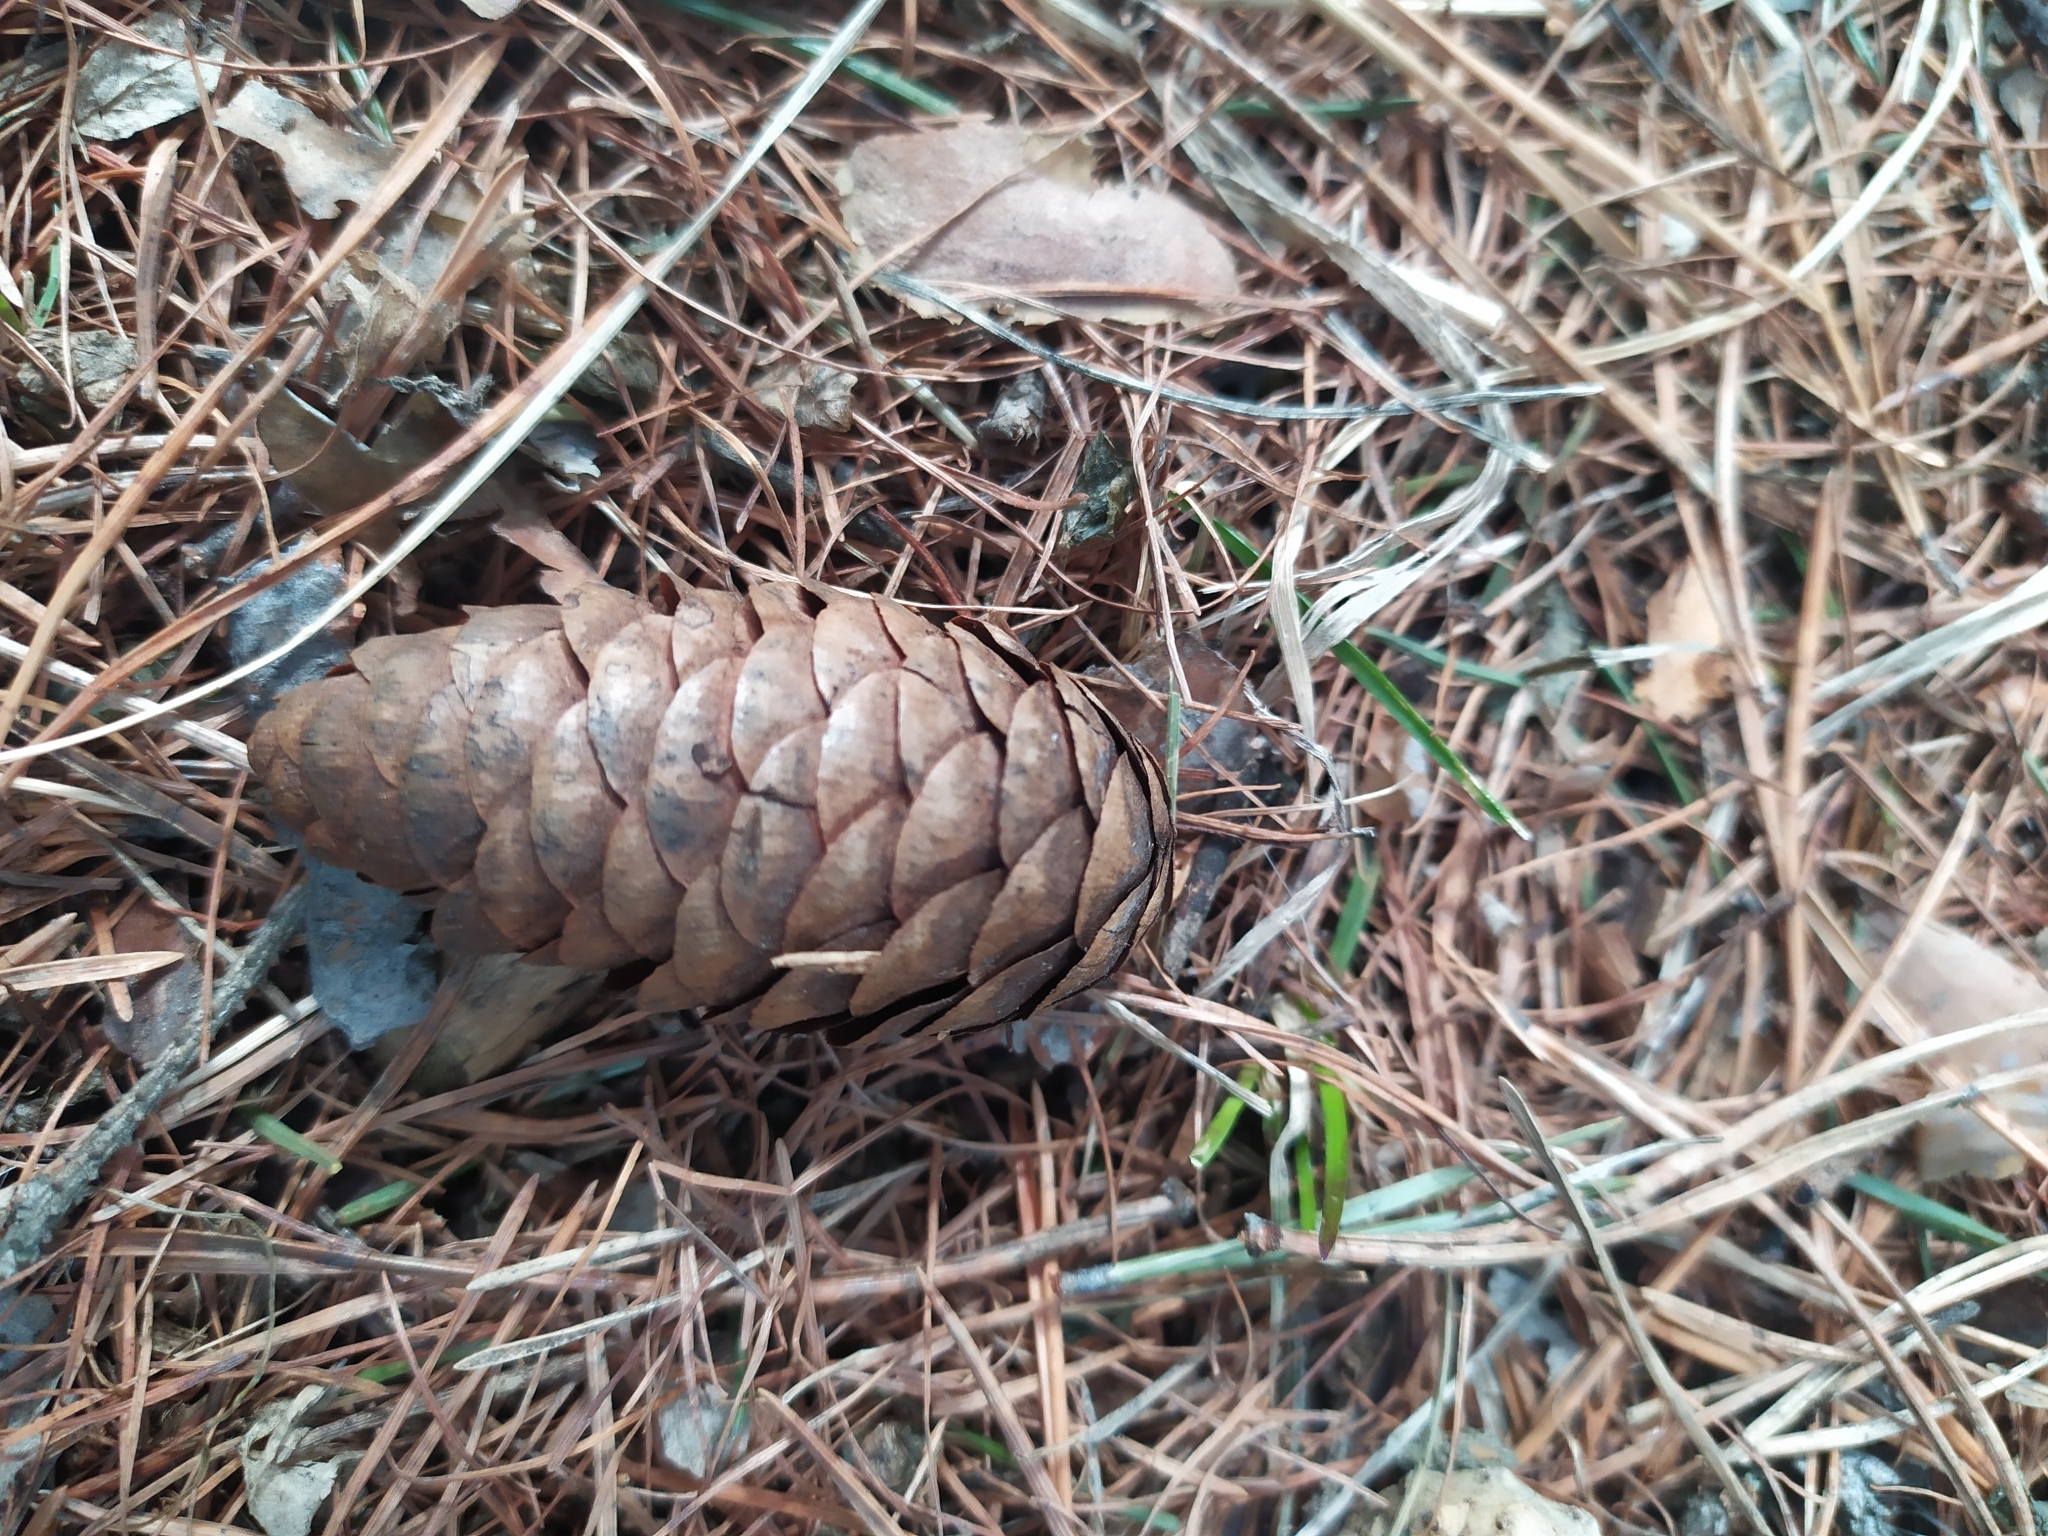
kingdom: Plantae
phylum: Tracheophyta
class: Pinopsida
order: Pinales
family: Pinaceae
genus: Picea
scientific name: Picea obovata
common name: Siberian spruce
